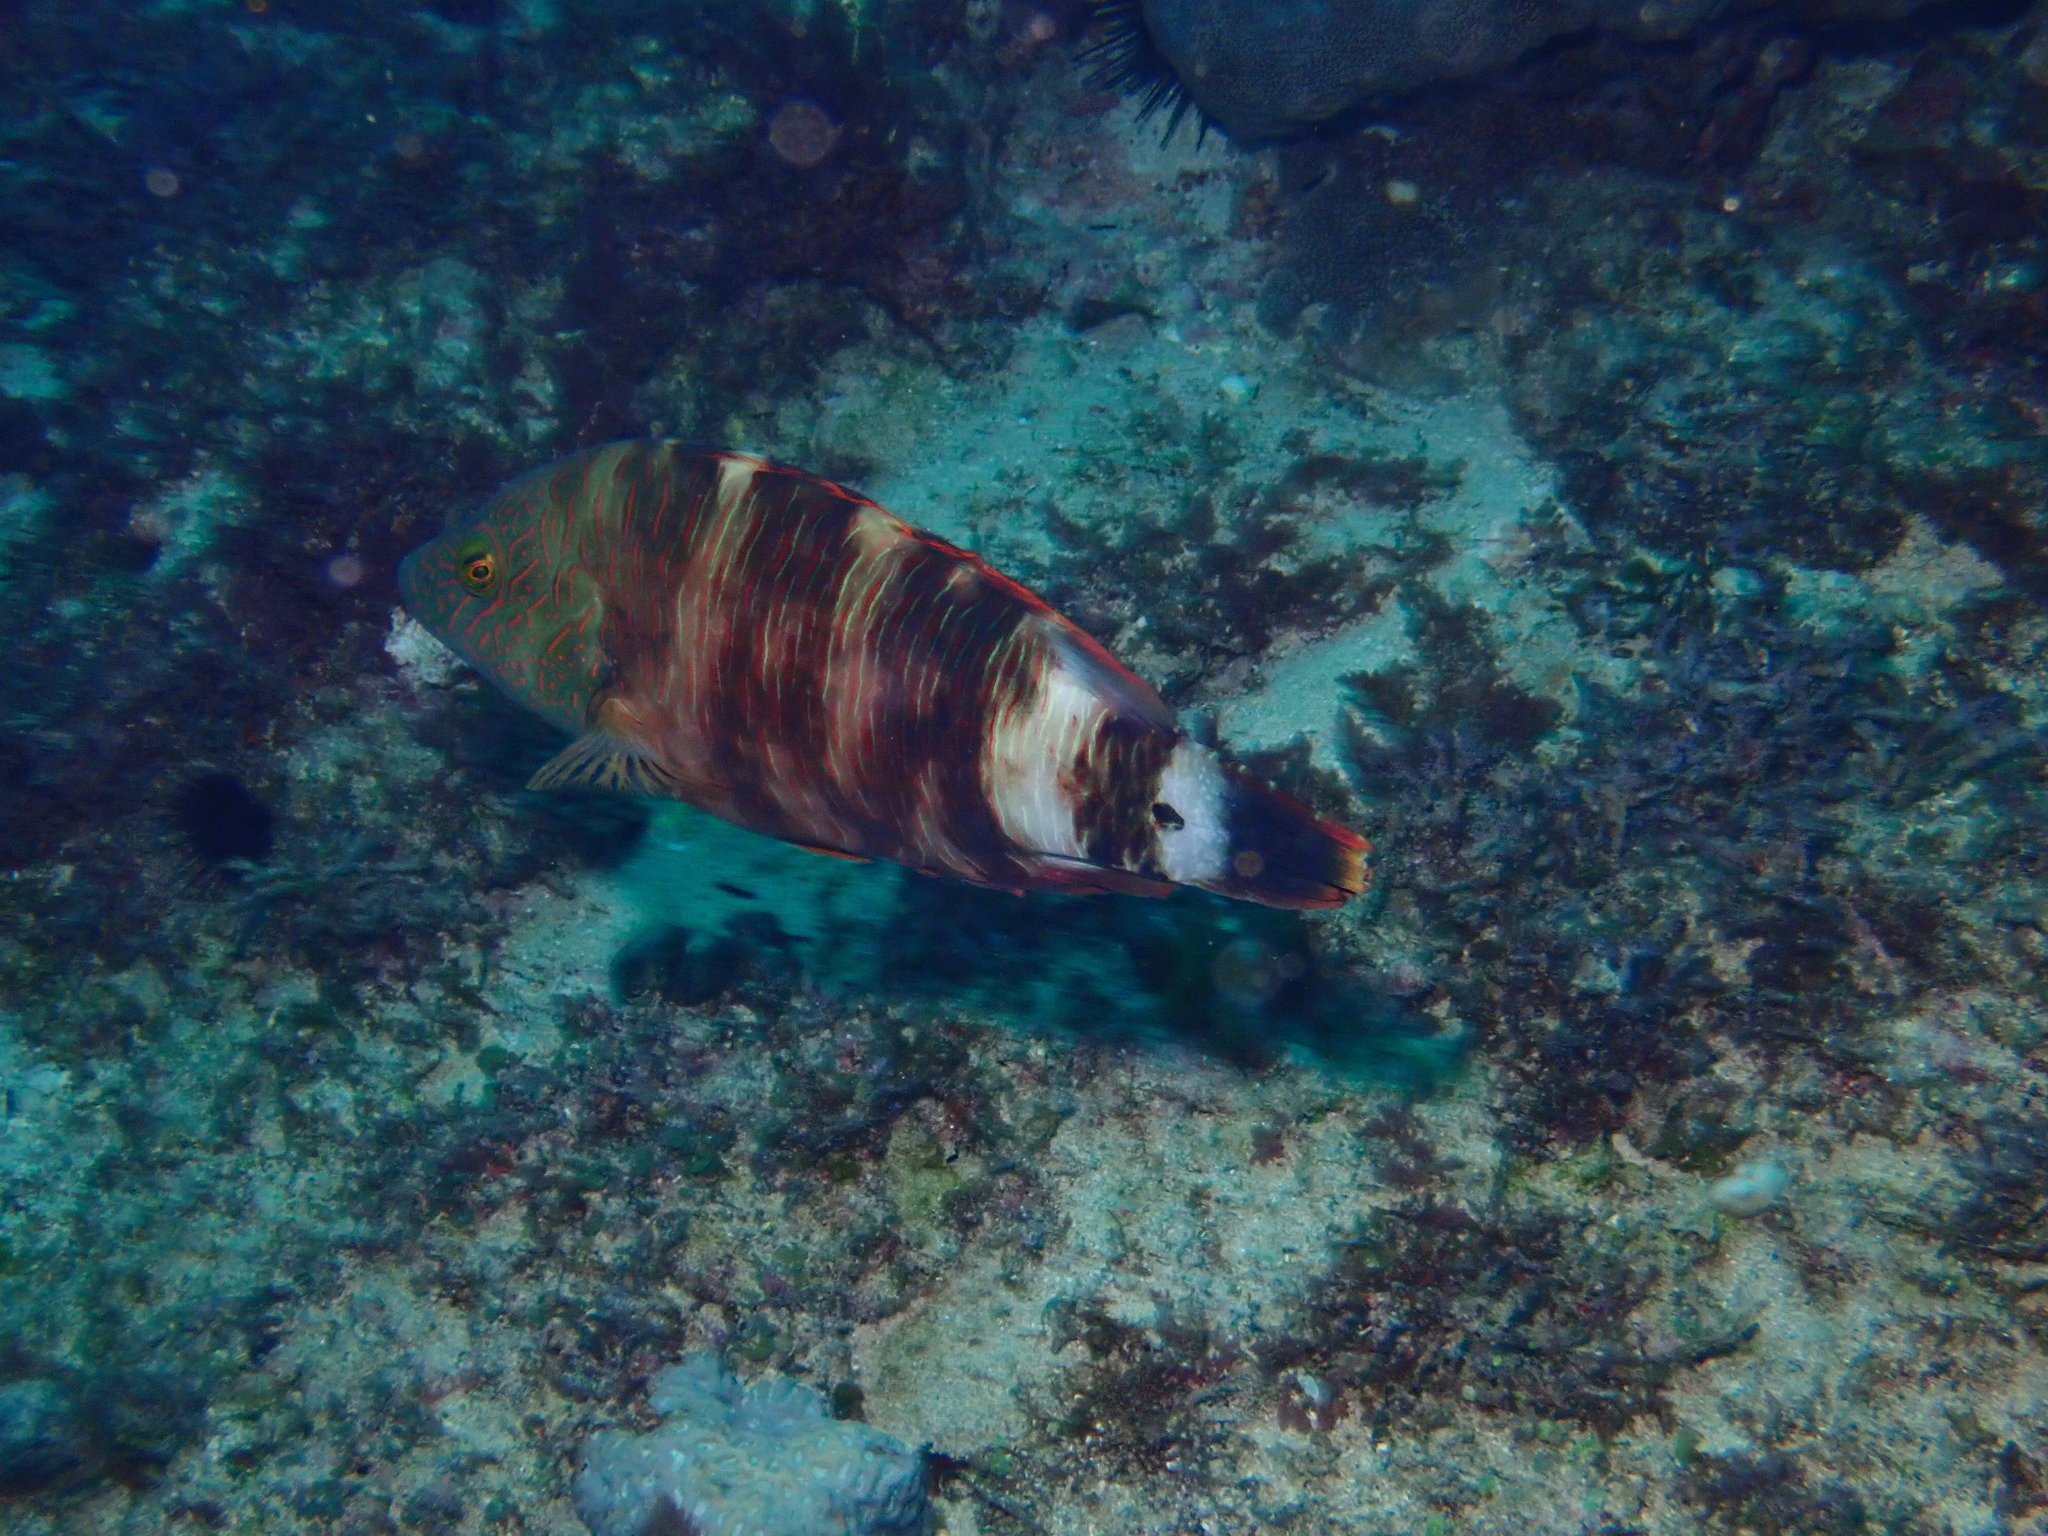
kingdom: Animalia
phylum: Chordata
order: Perciformes
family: Labridae
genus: Cheilinus
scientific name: Cheilinus trilobatus
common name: Tripletail maori wrasse
